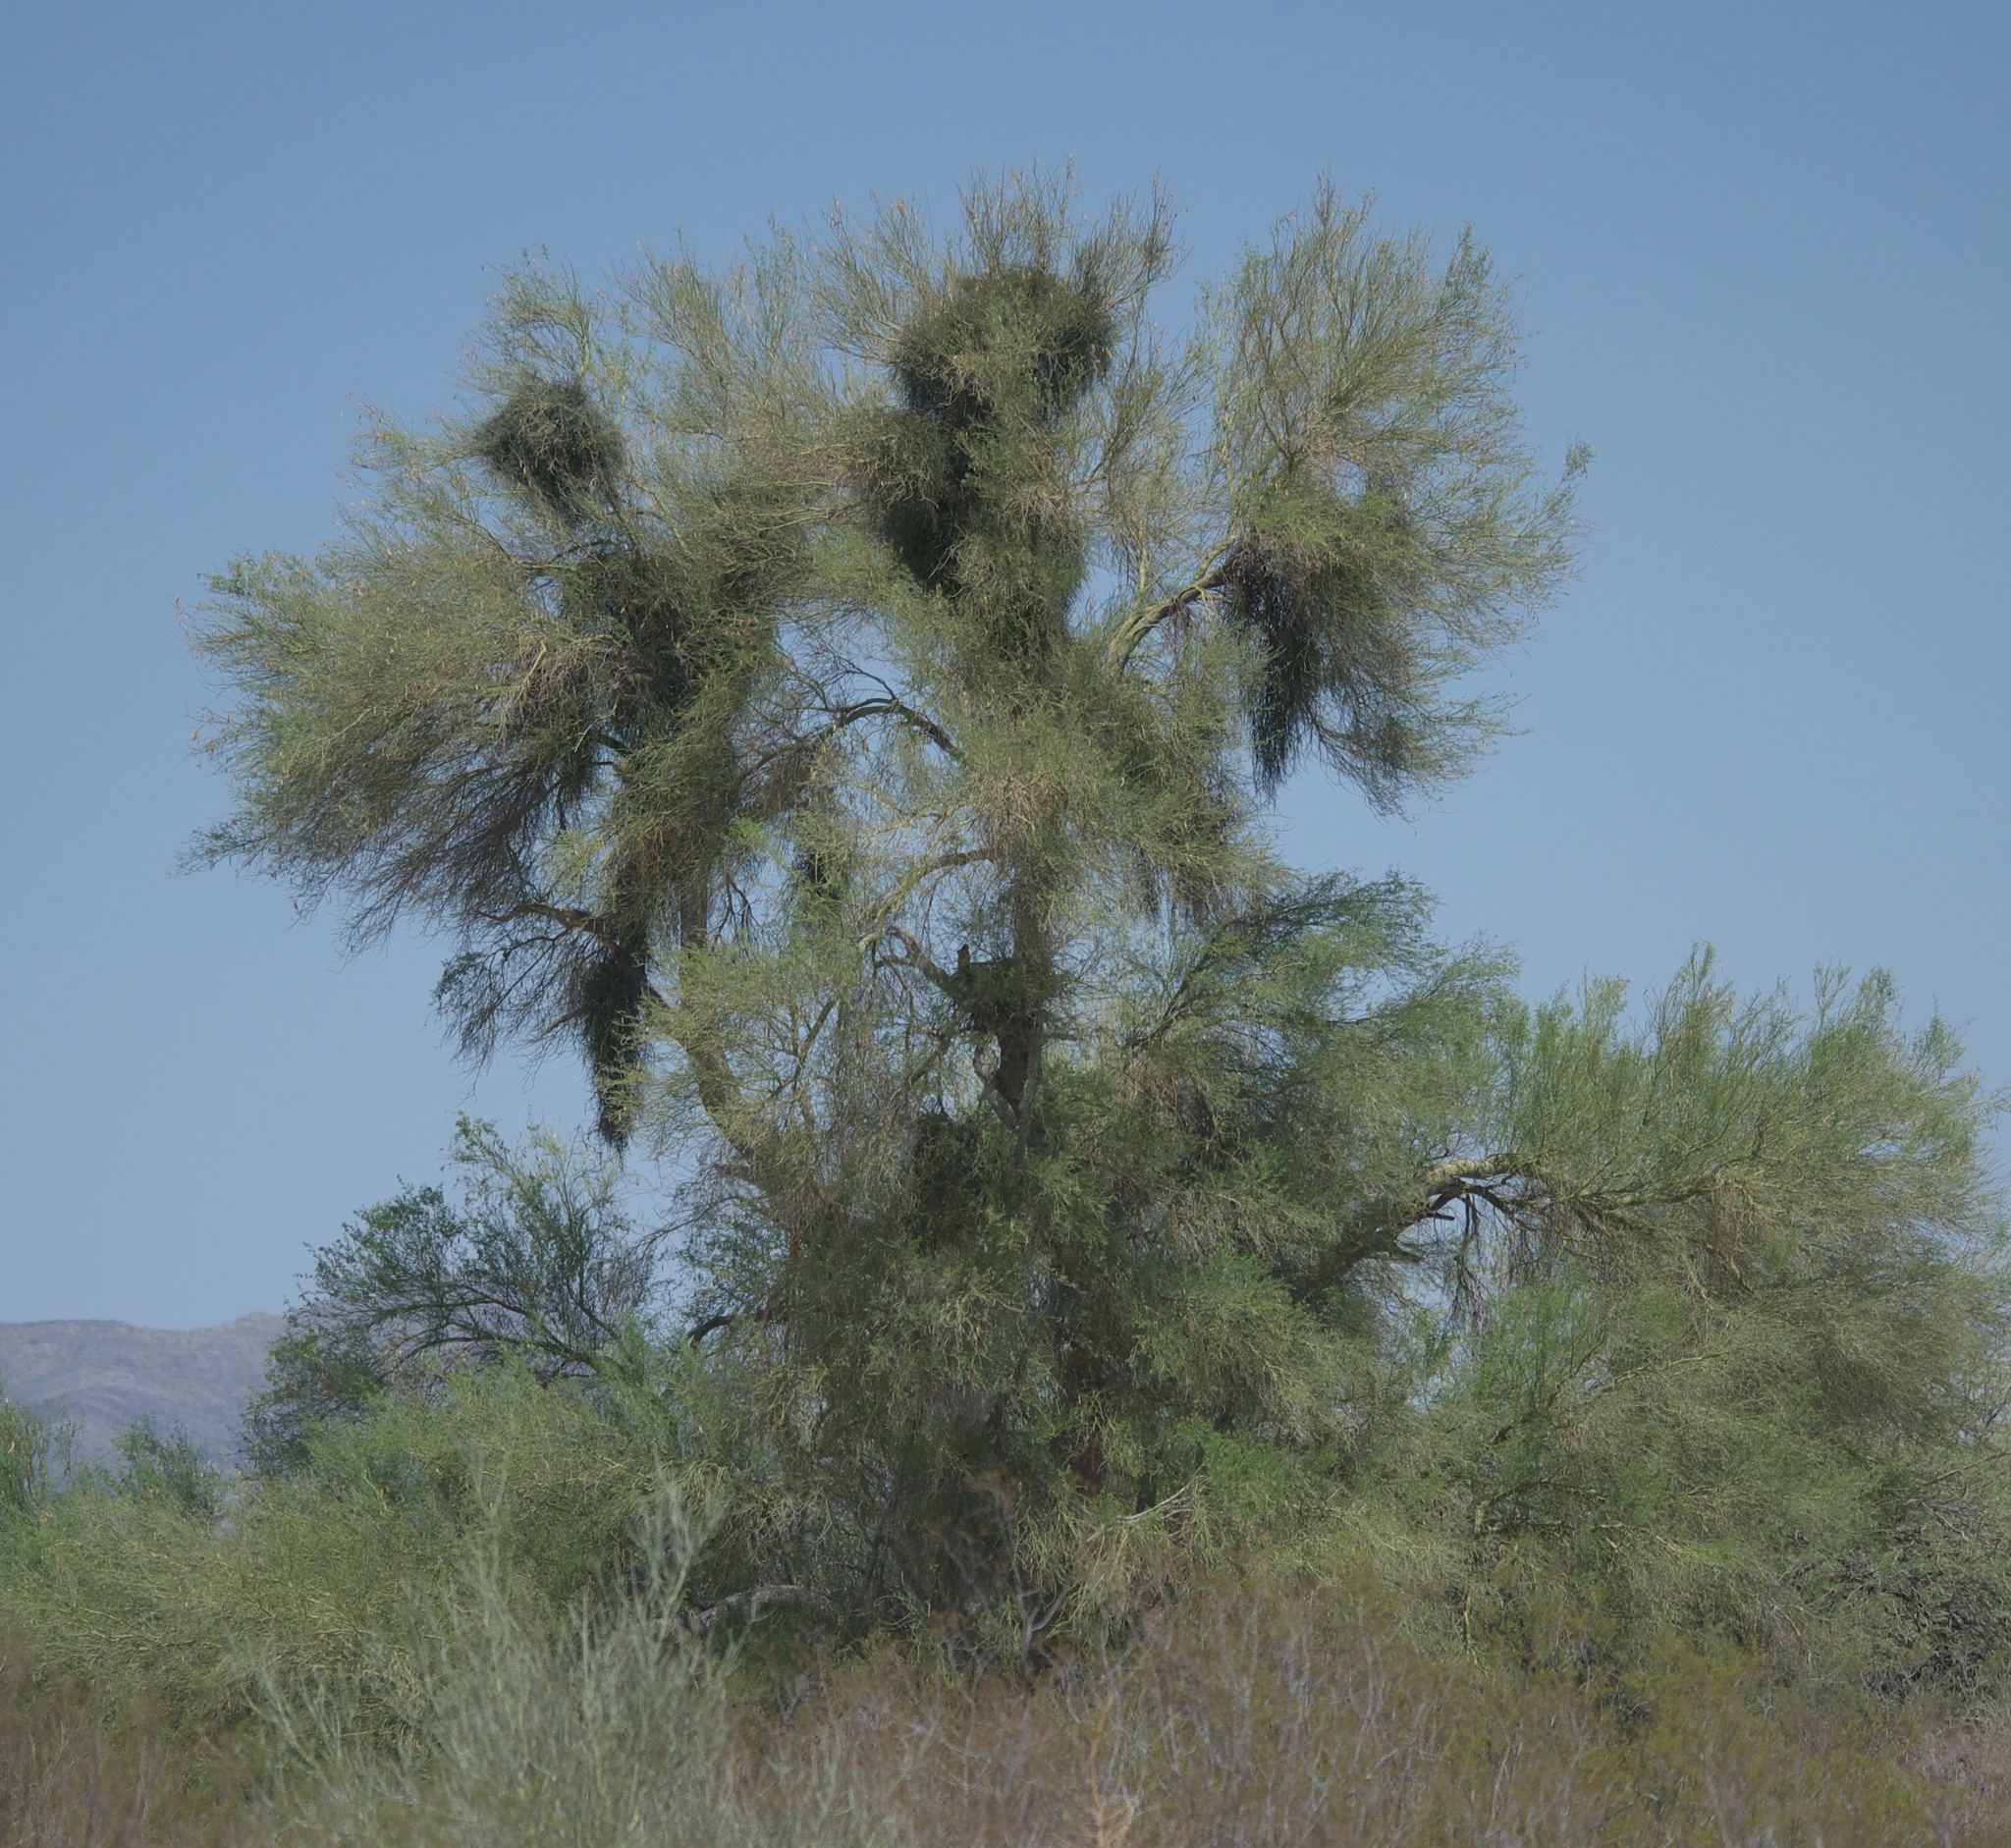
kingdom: Plantae
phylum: Tracheophyta
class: Magnoliopsida
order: Fabales
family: Fabaceae
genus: Parkinsonia
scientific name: Parkinsonia florida
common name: Blue paloverde
